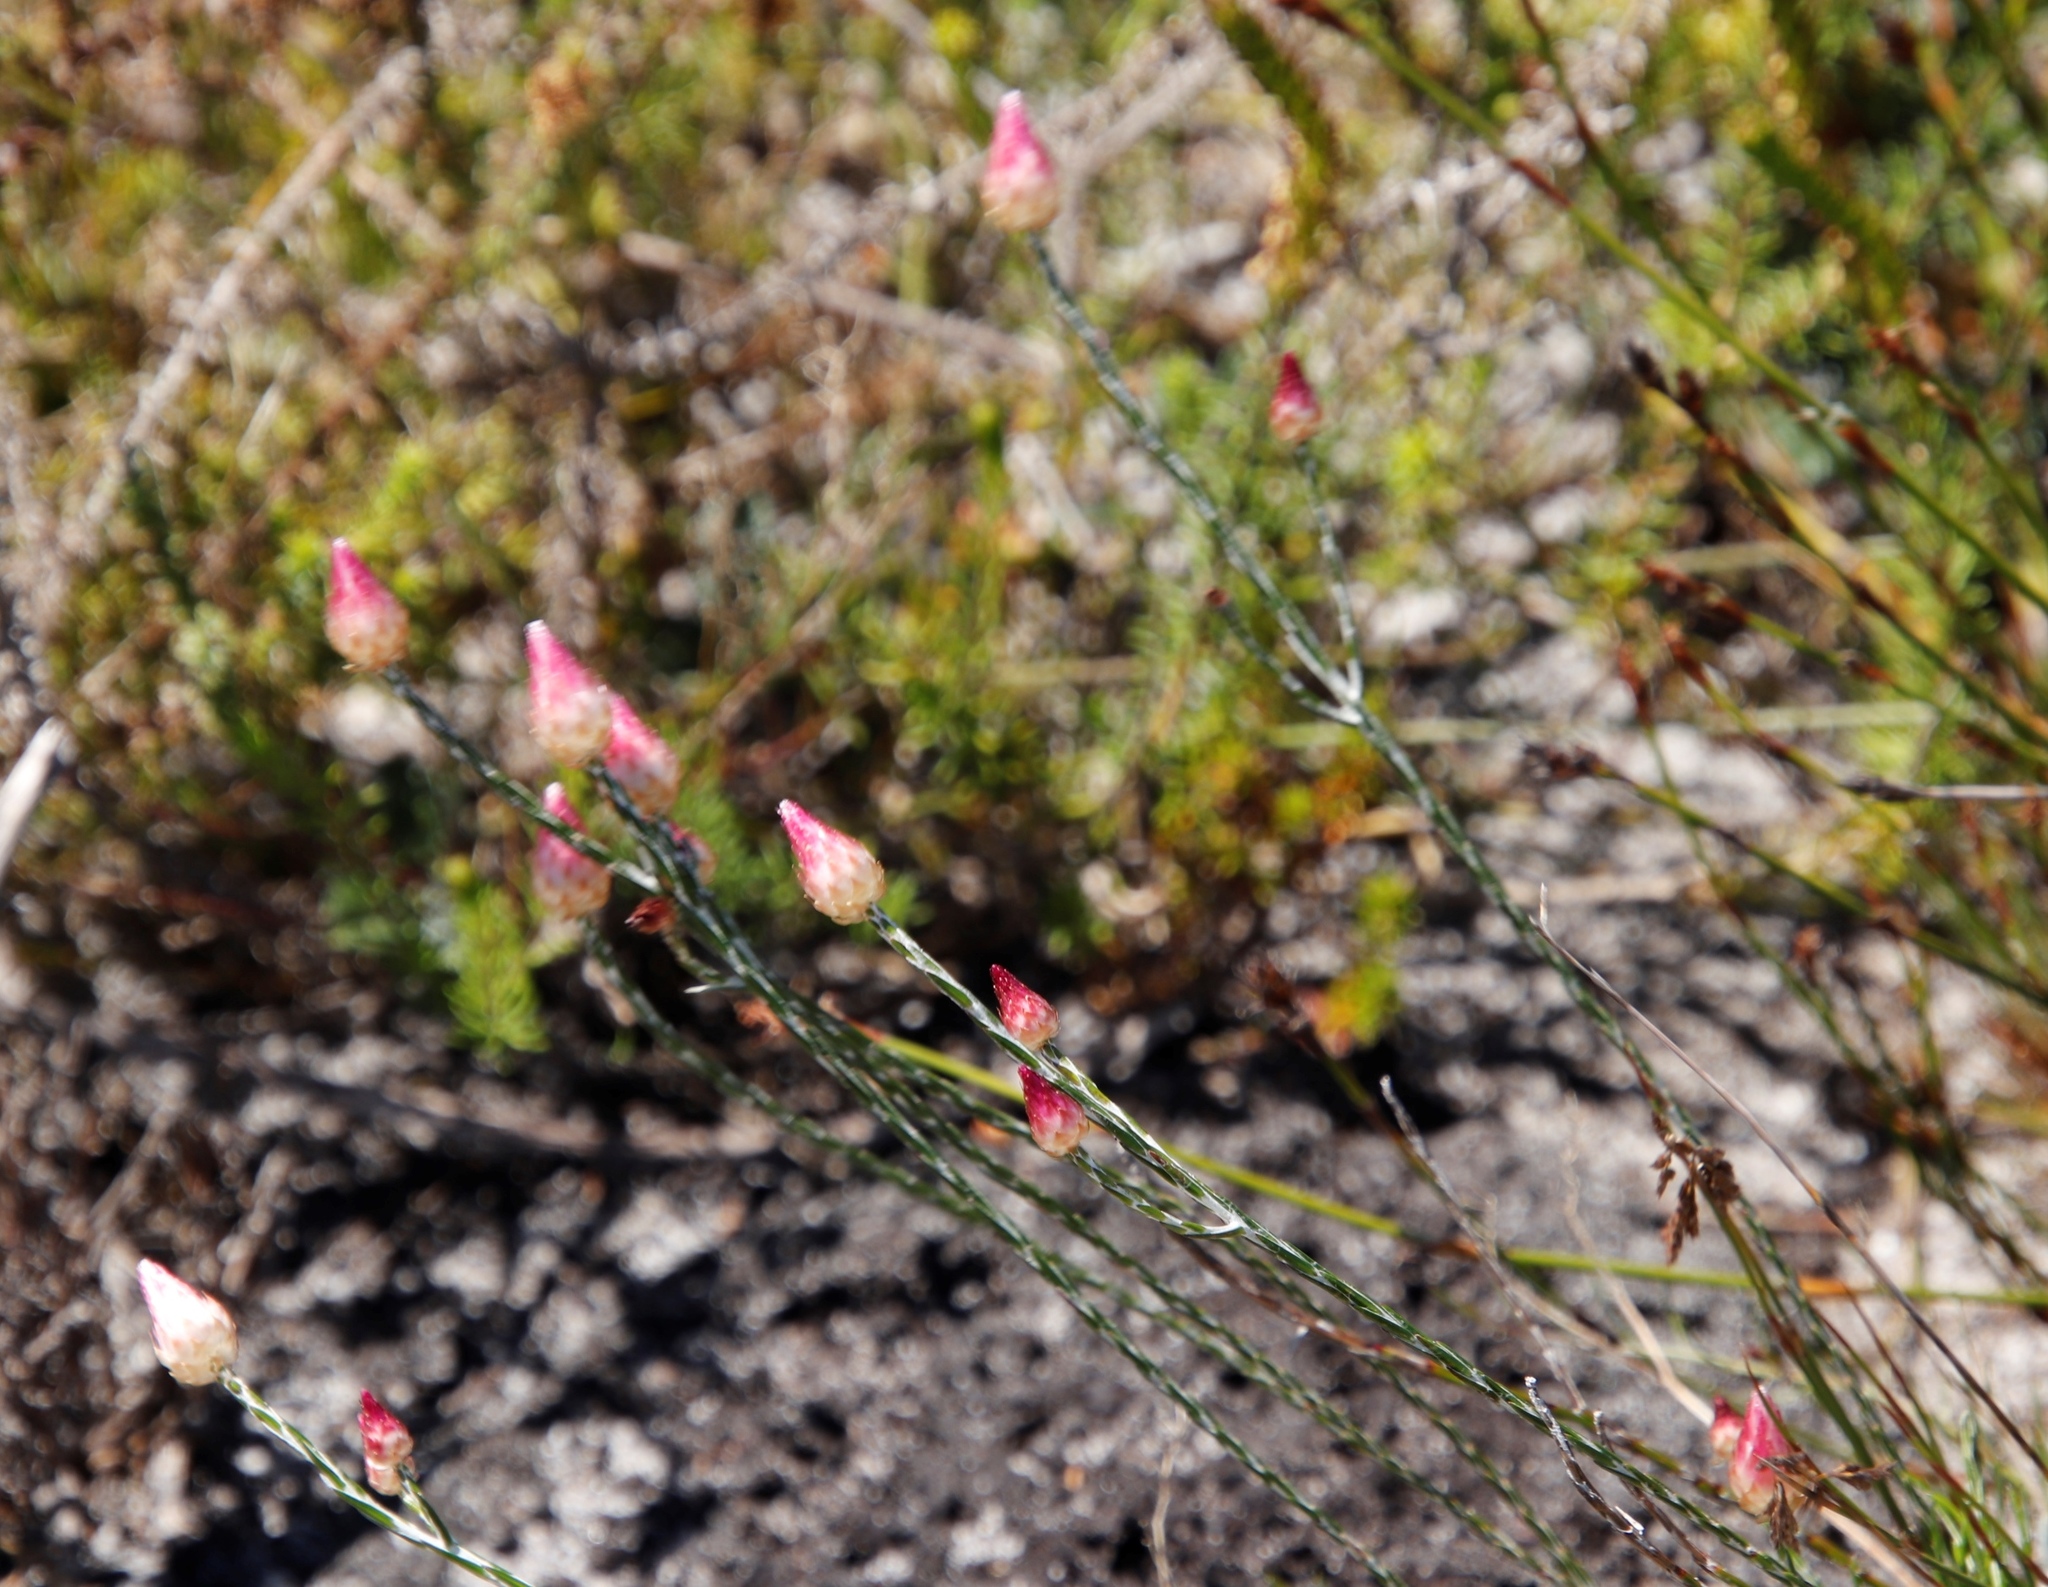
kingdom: Plantae
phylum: Tracheophyta
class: Magnoliopsida
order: Asterales
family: Asteraceae
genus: Edmondia
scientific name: Edmondia sesamoides
